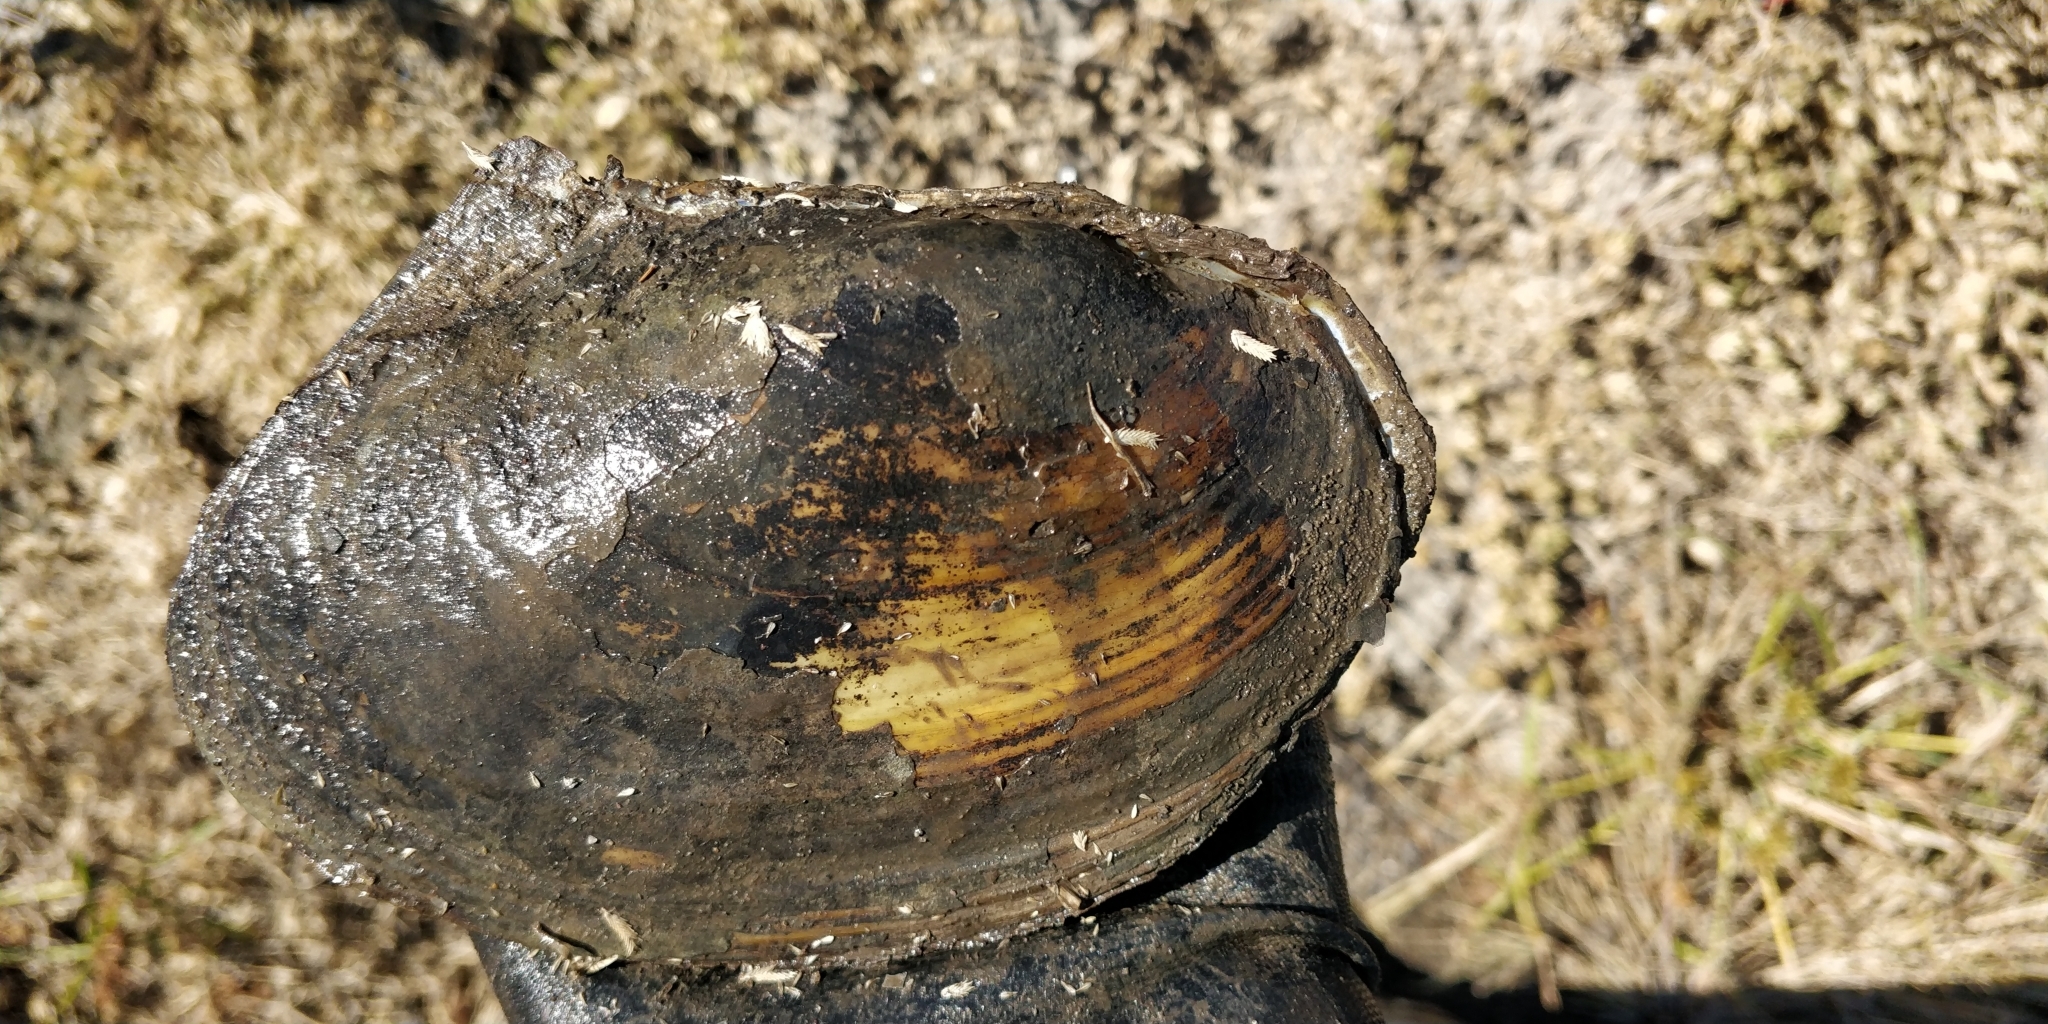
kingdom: Animalia
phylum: Mollusca
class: Bivalvia
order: Unionida
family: Unionidae
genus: Potamilus
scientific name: Potamilus fragilis
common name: Fragile papershell
